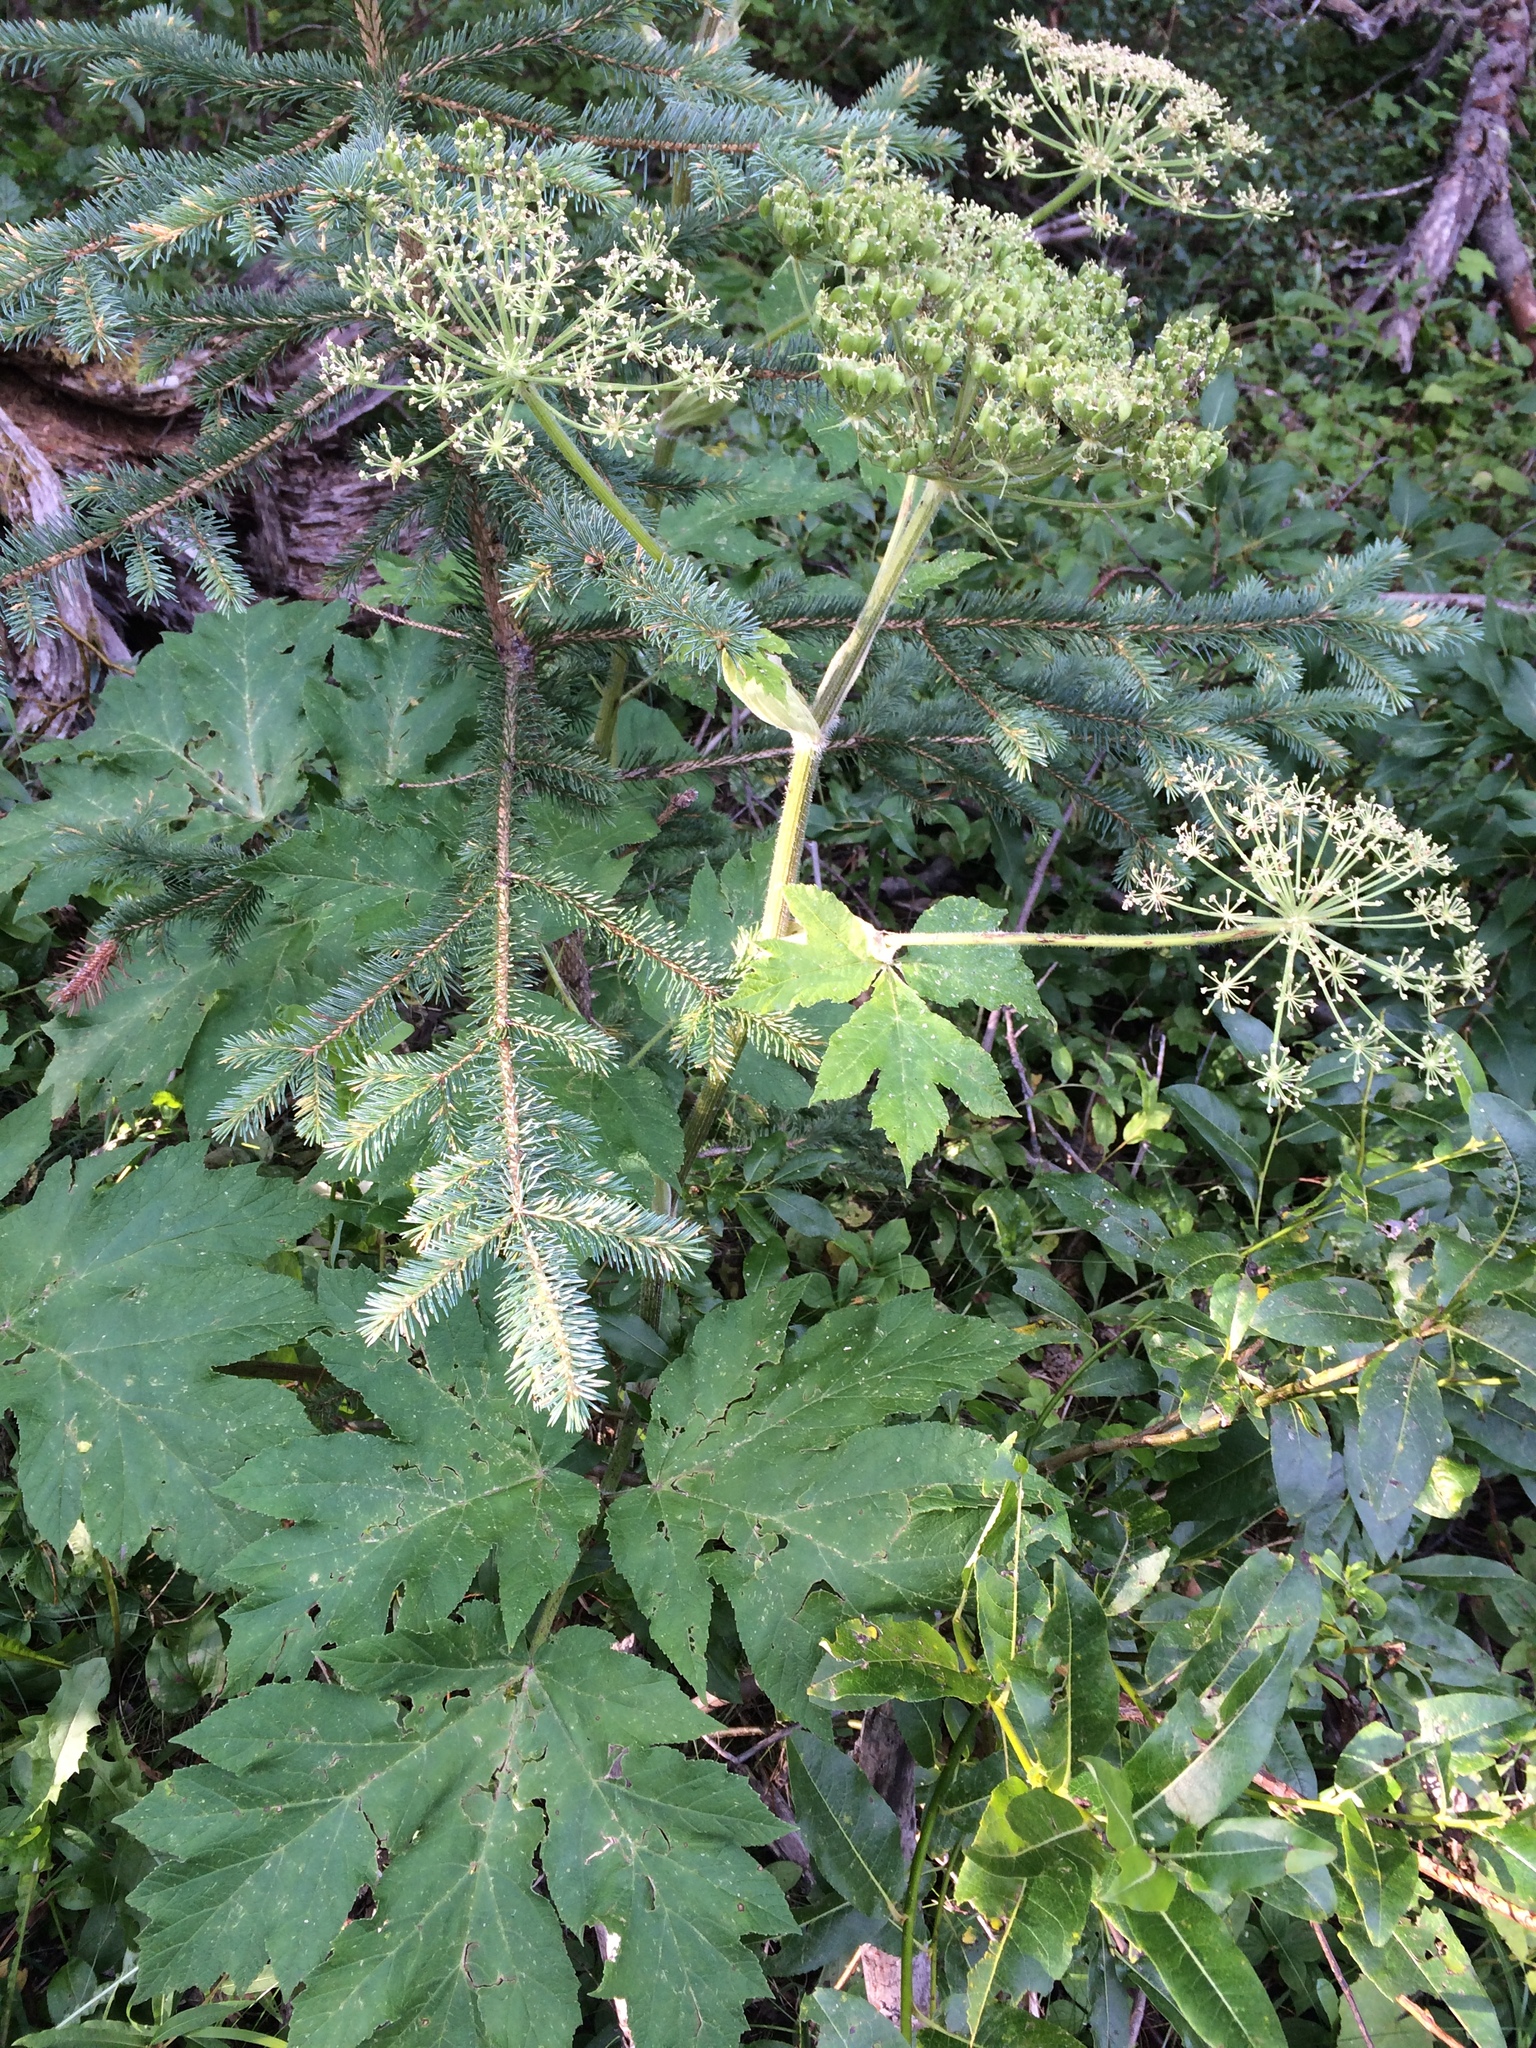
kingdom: Plantae
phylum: Tracheophyta
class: Magnoliopsida
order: Apiales
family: Apiaceae
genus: Heracleum
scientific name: Heracleum maximum
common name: American cow parsnip
